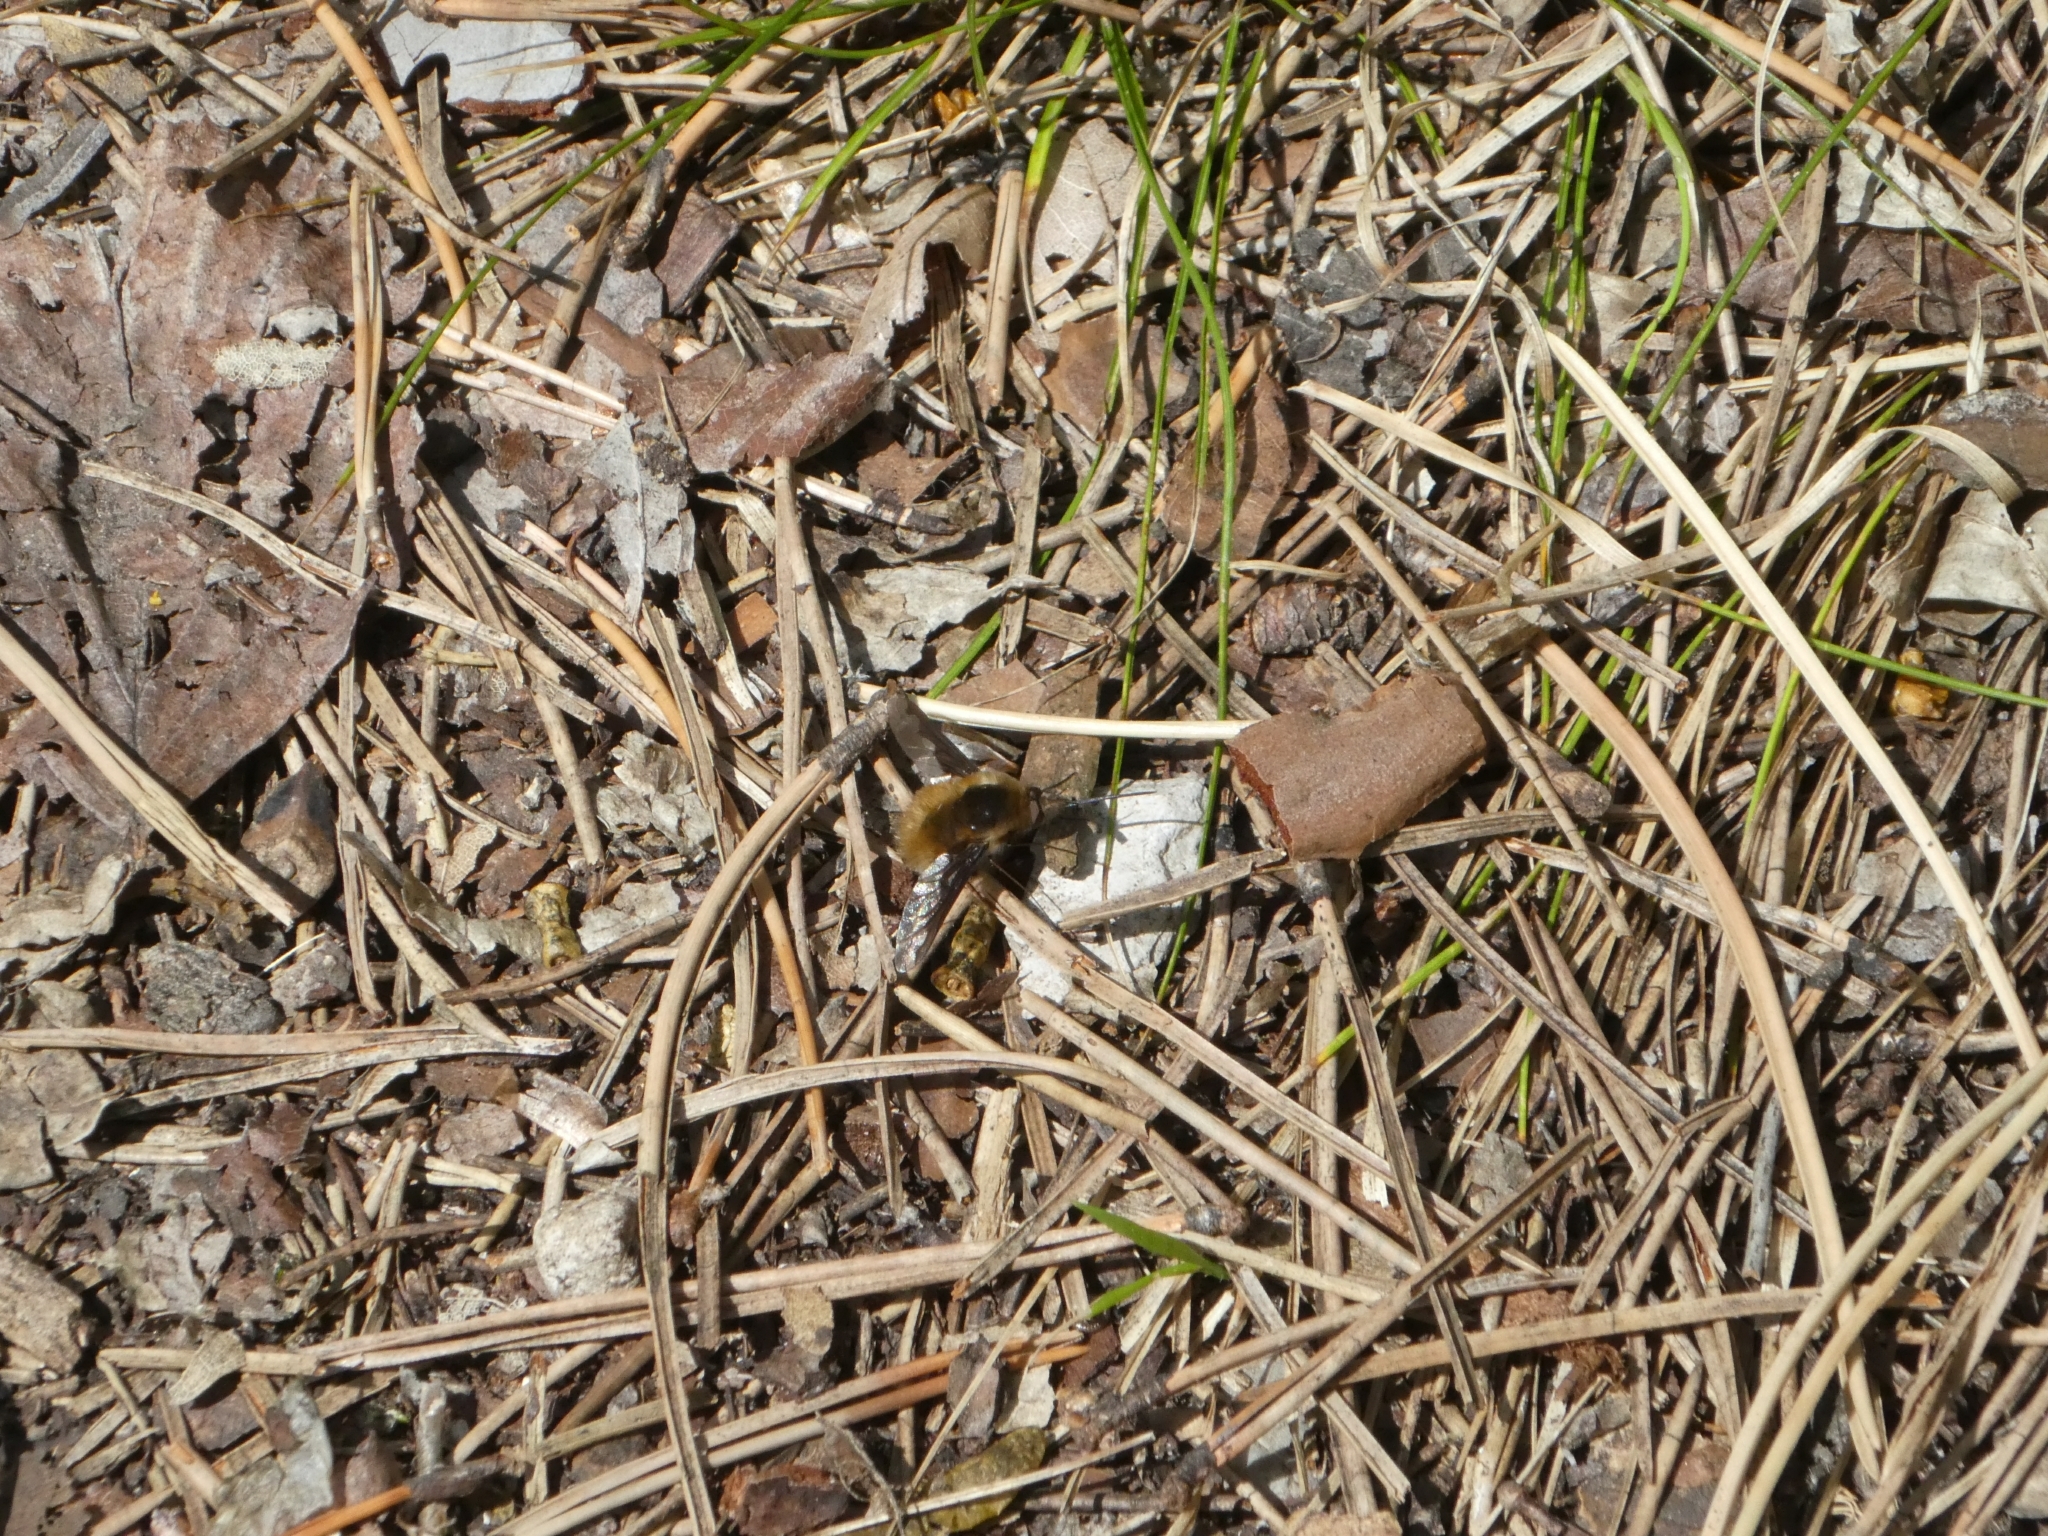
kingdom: Animalia
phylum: Arthropoda
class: Insecta
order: Diptera
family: Bombyliidae
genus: Bombylius
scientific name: Bombylius major
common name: Bee fly
